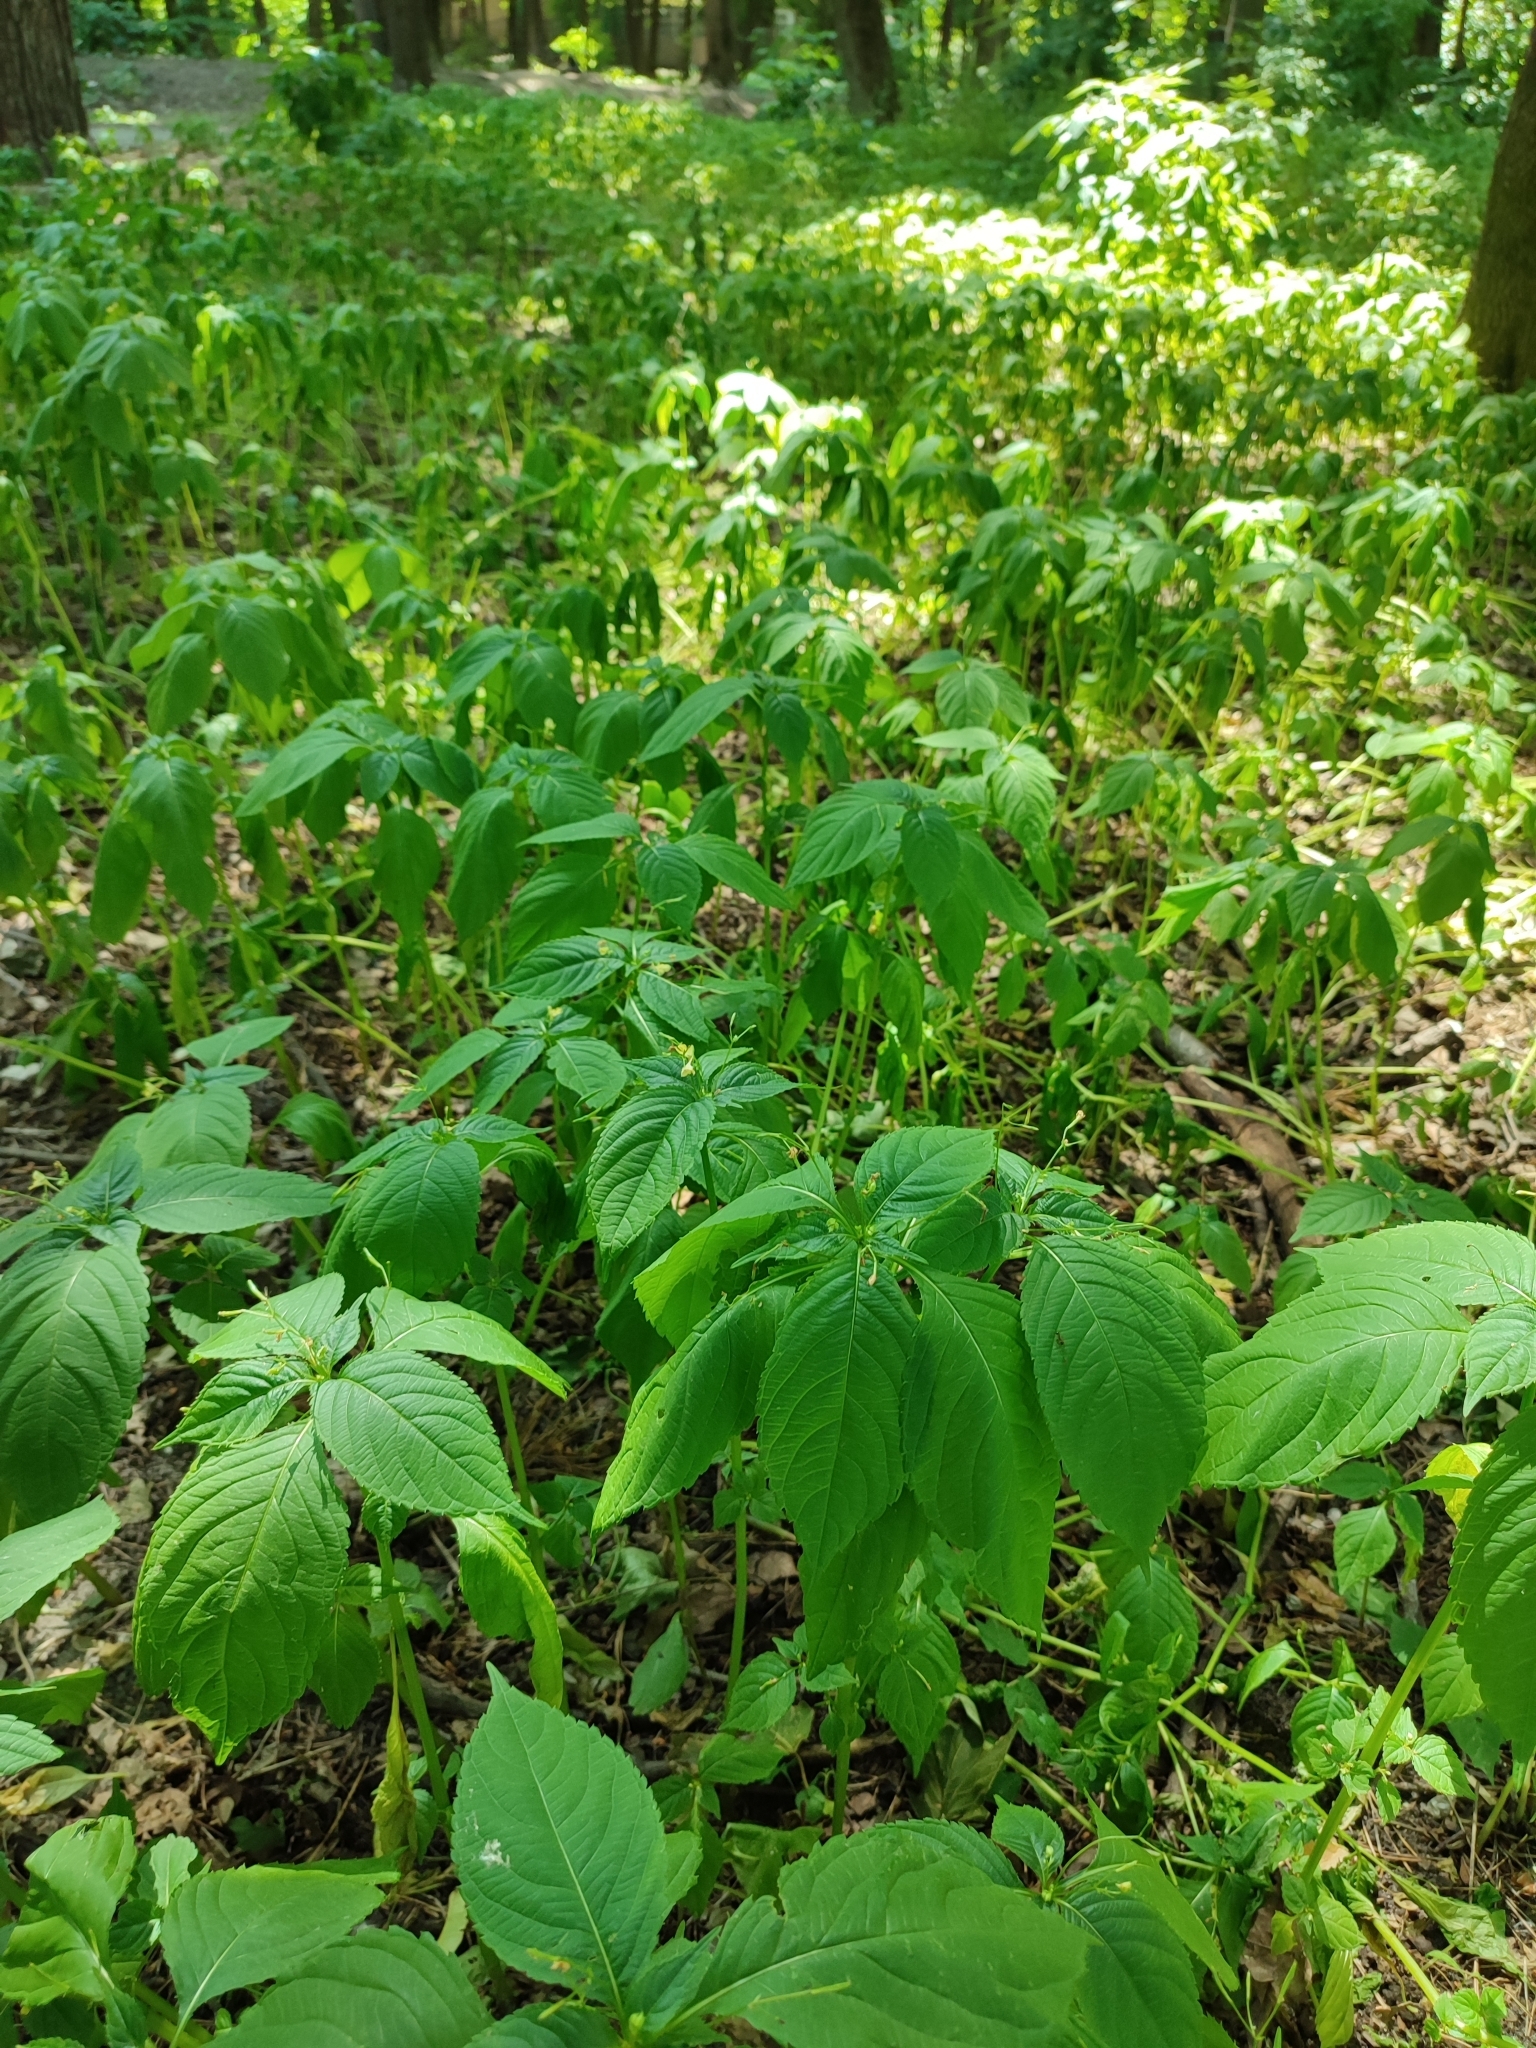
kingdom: Plantae
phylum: Tracheophyta
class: Magnoliopsida
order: Ericales
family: Balsaminaceae
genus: Impatiens
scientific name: Impatiens parviflora
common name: Small balsam
